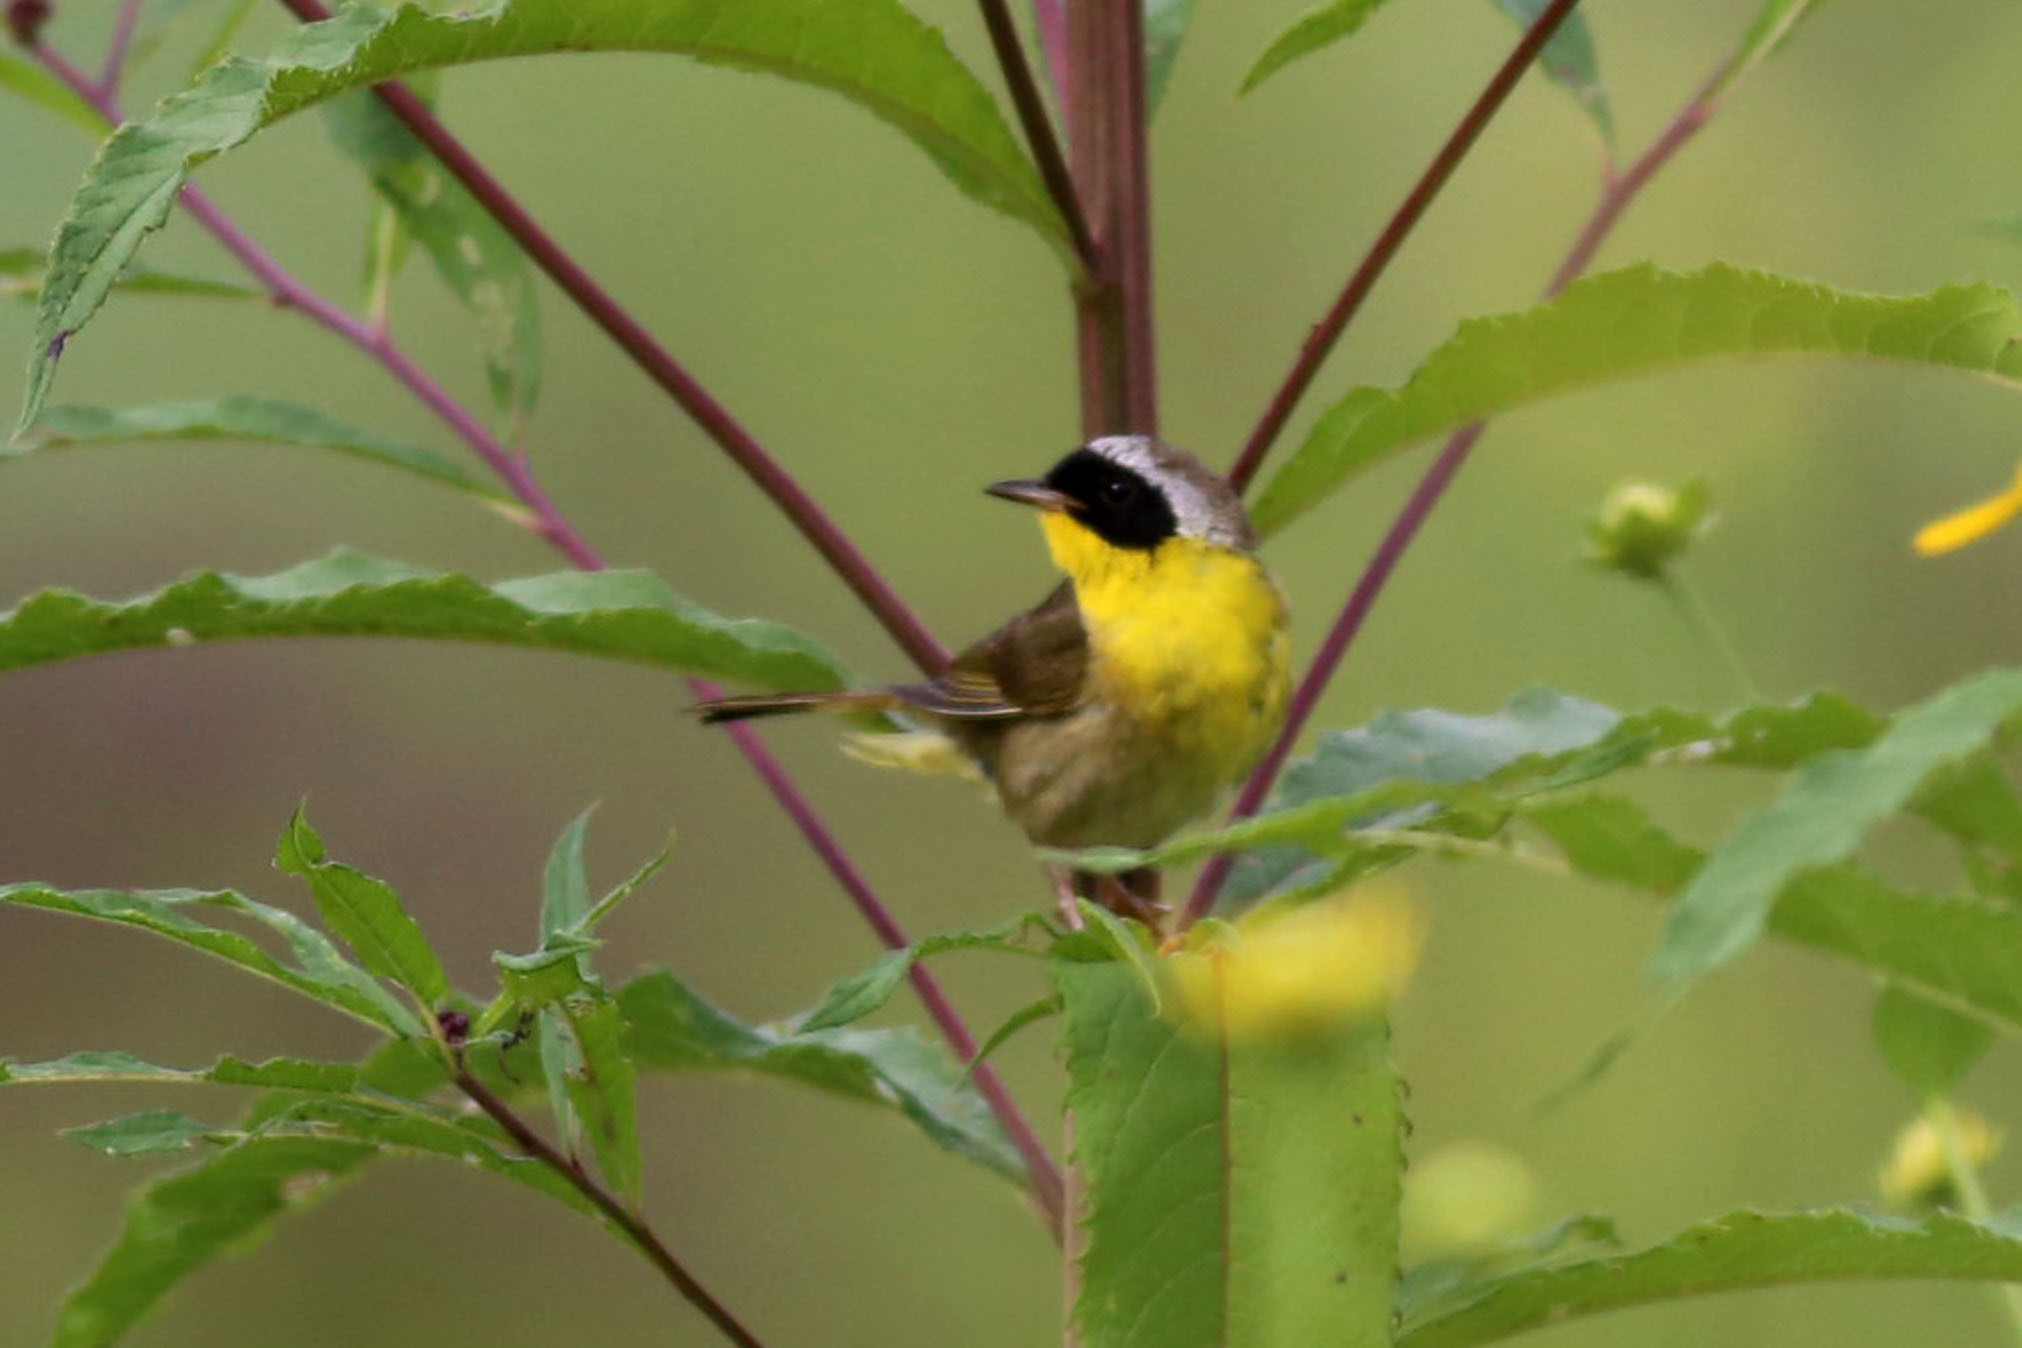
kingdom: Animalia
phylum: Chordata
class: Aves
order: Passeriformes
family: Parulidae
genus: Geothlypis
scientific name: Geothlypis trichas
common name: Common yellowthroat
